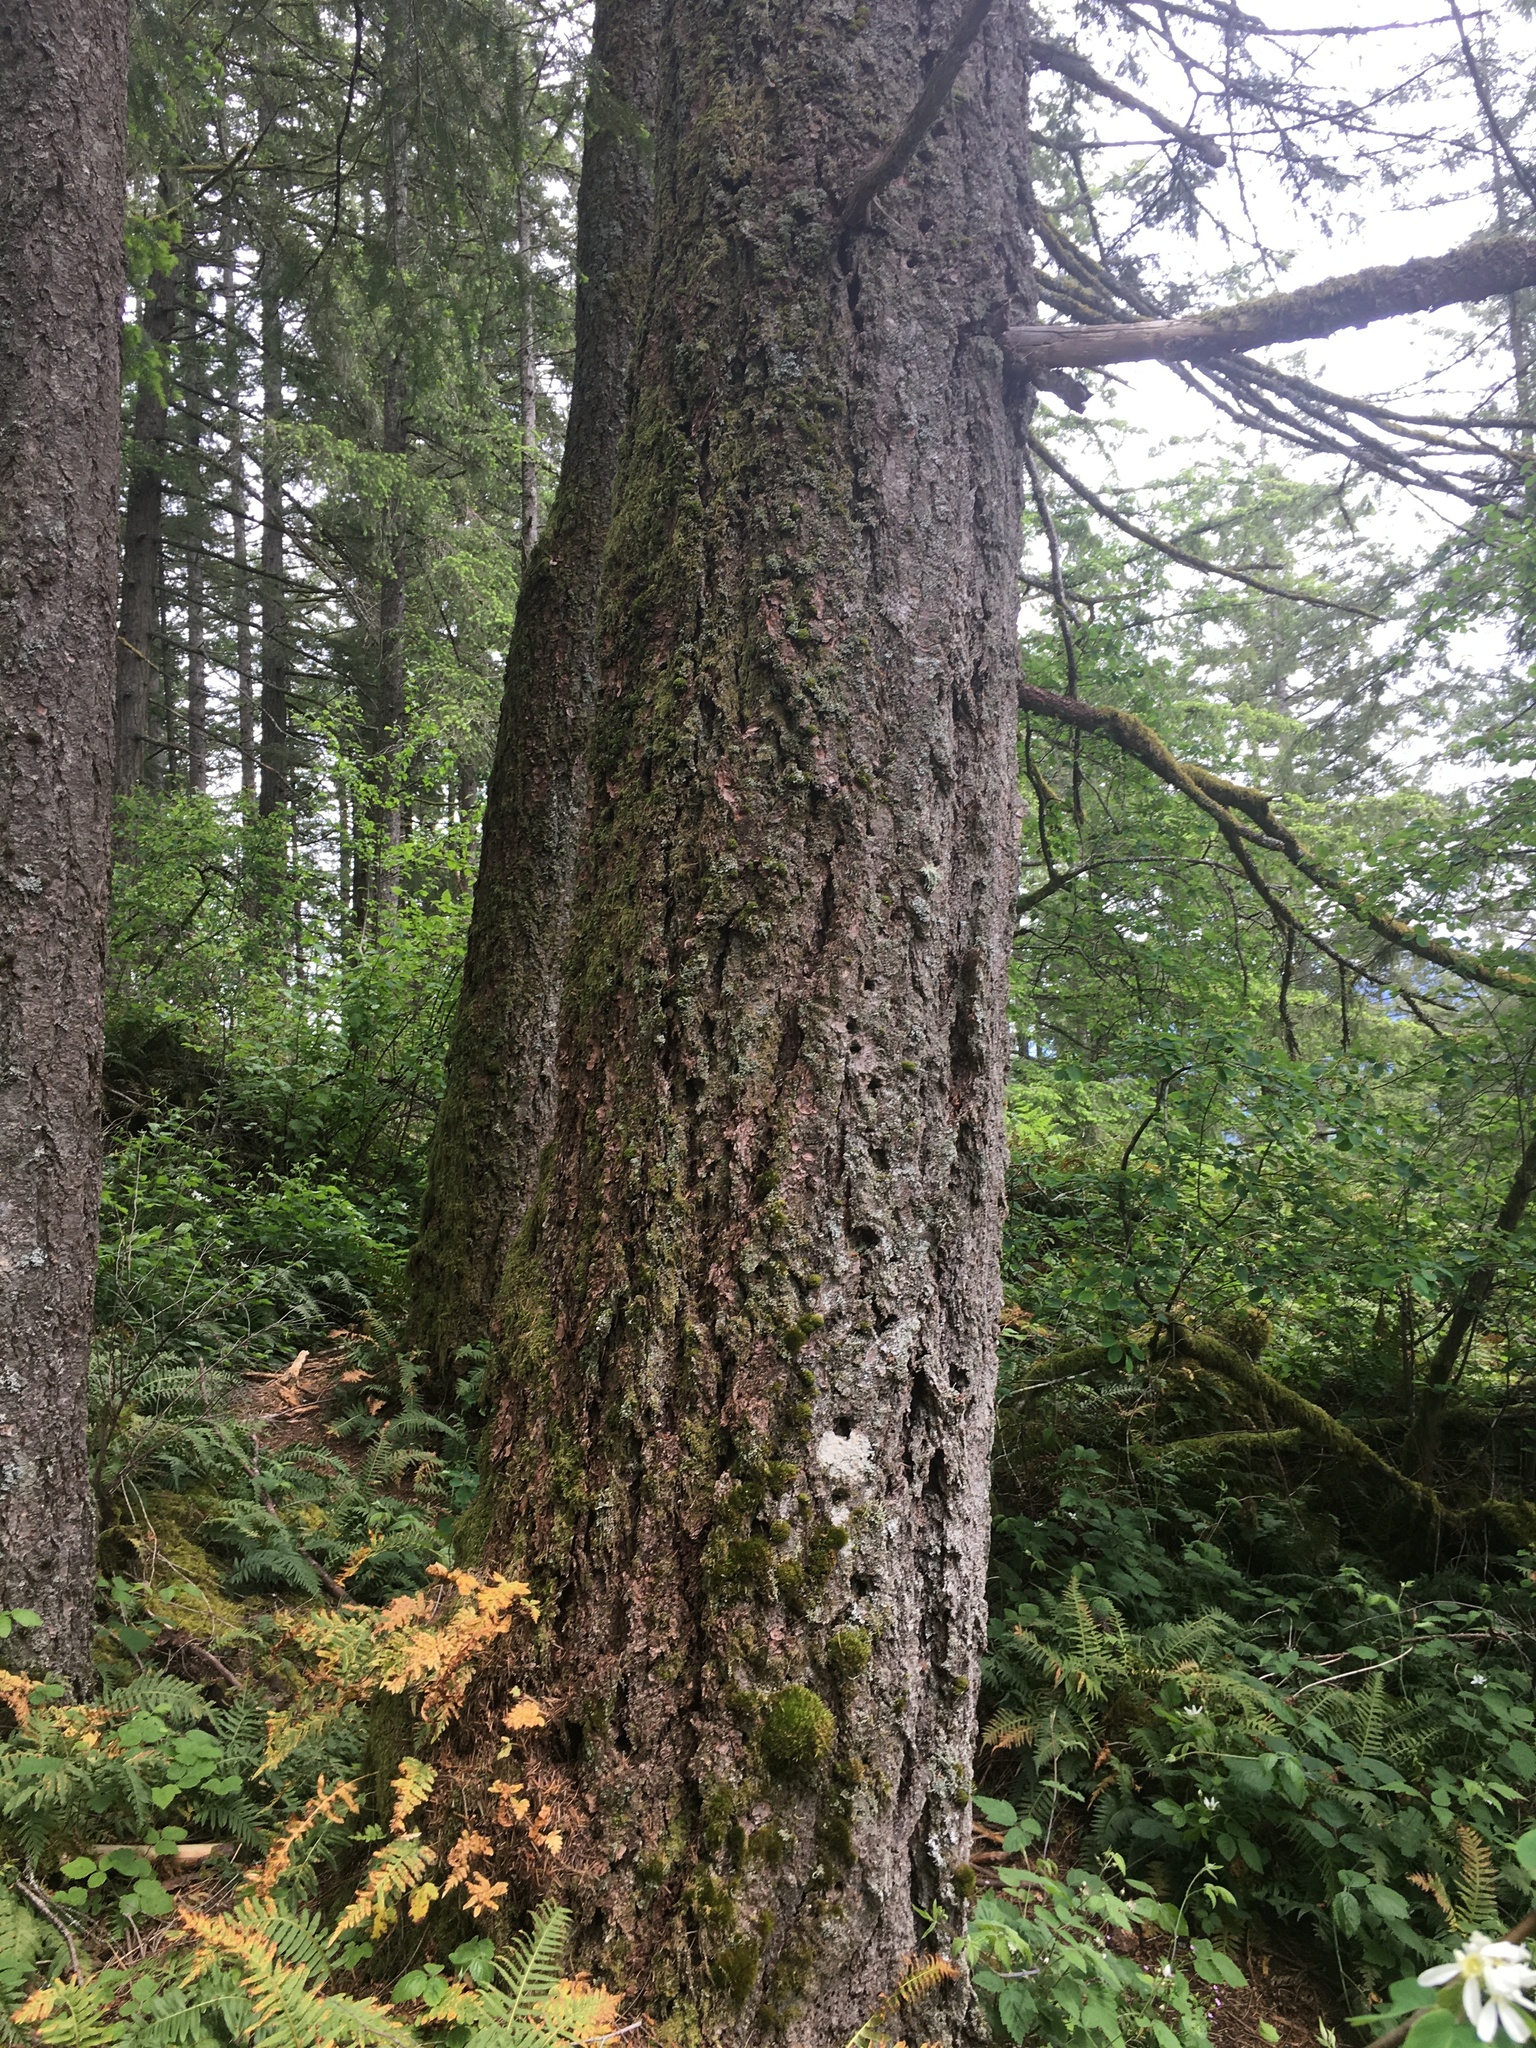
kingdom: Plantae
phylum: Tracheophyta
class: Pinopsida
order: Pinales
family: Pinaceae
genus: Pseudotsuga
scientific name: Pseudotsuga menziesii
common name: Douglas fir
